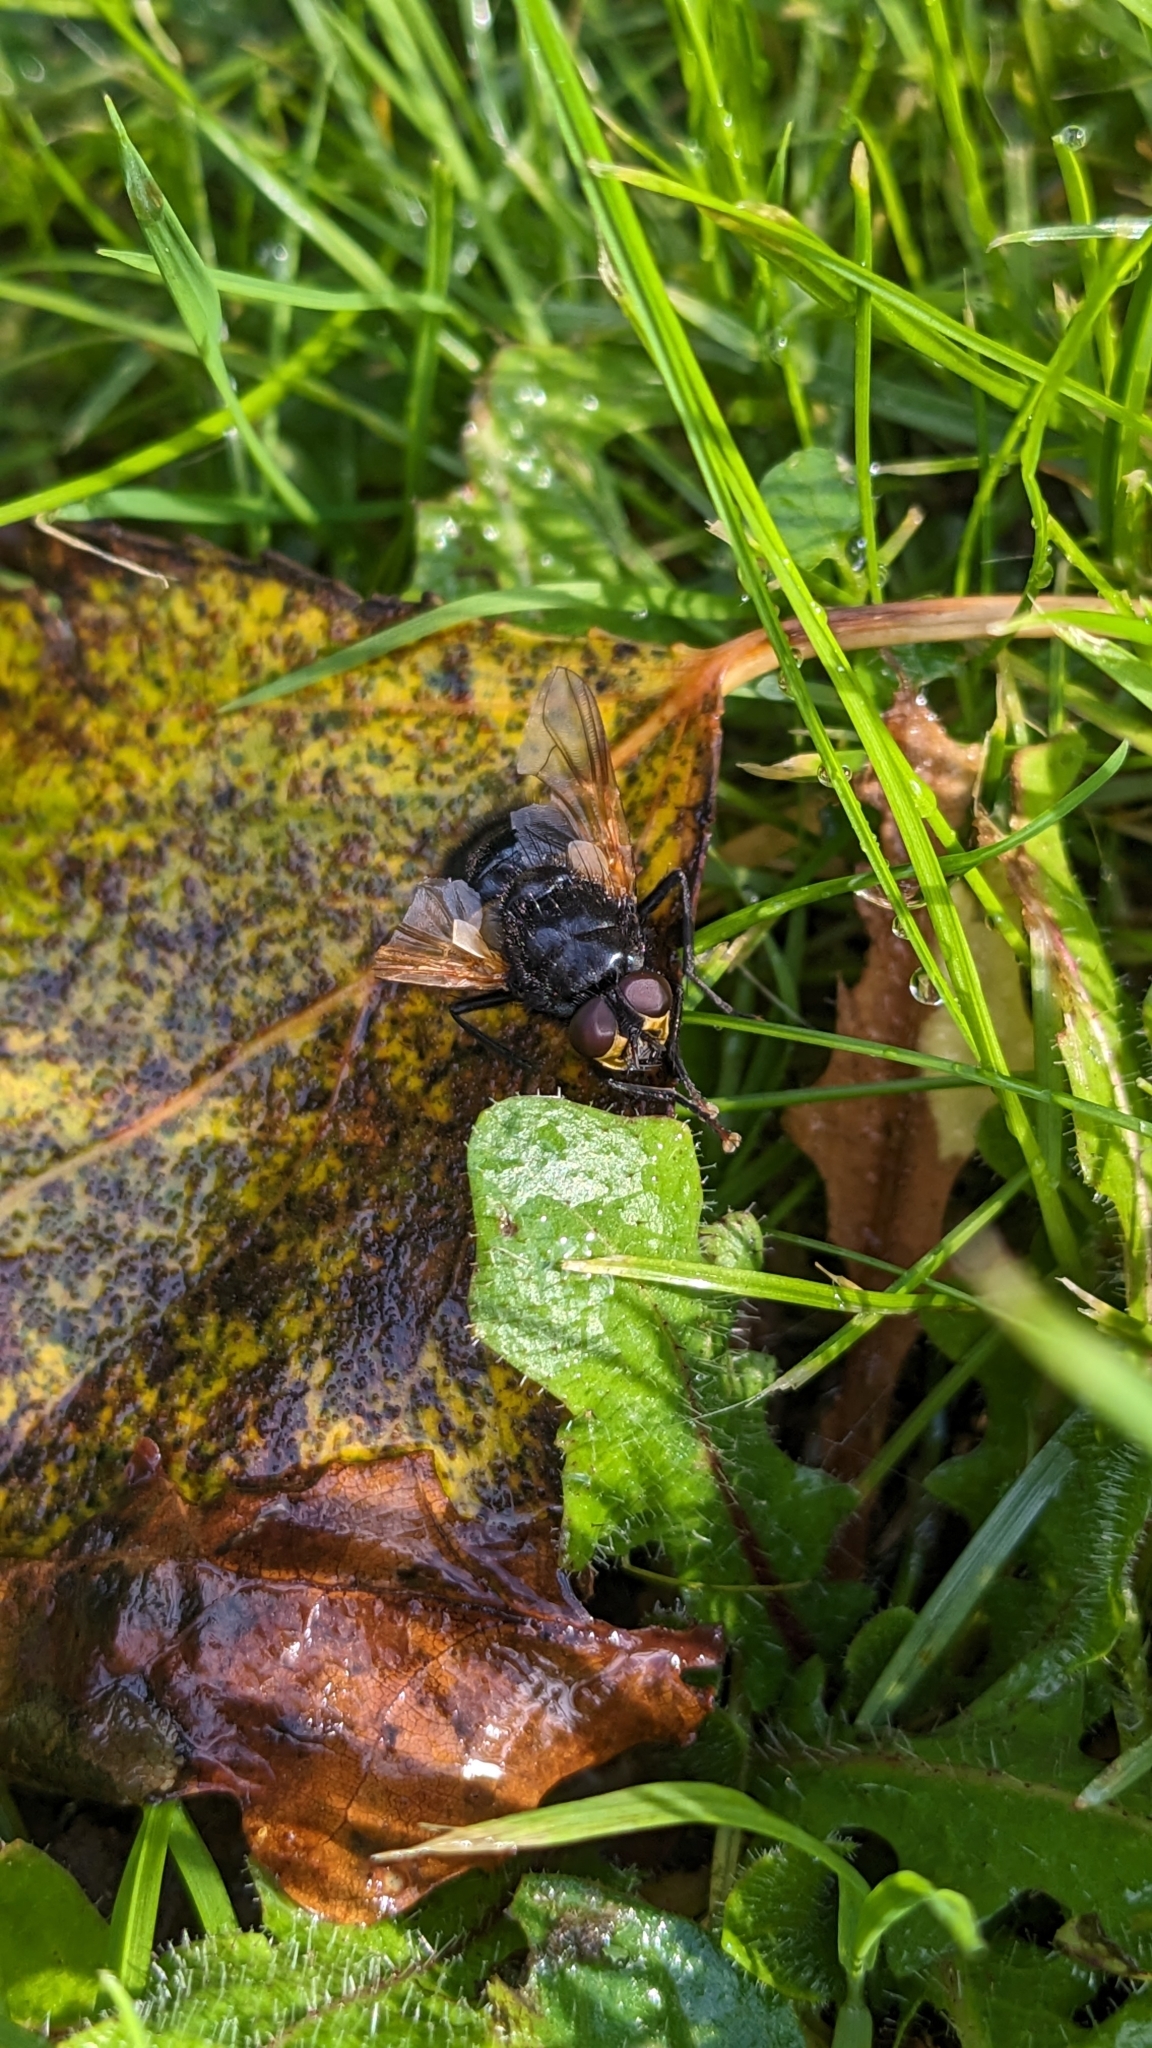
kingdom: Animalia
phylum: Arthropoda
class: Insecta
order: Diptera
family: Muscidae
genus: Mesembrina
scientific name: Mesembrina meridiana
